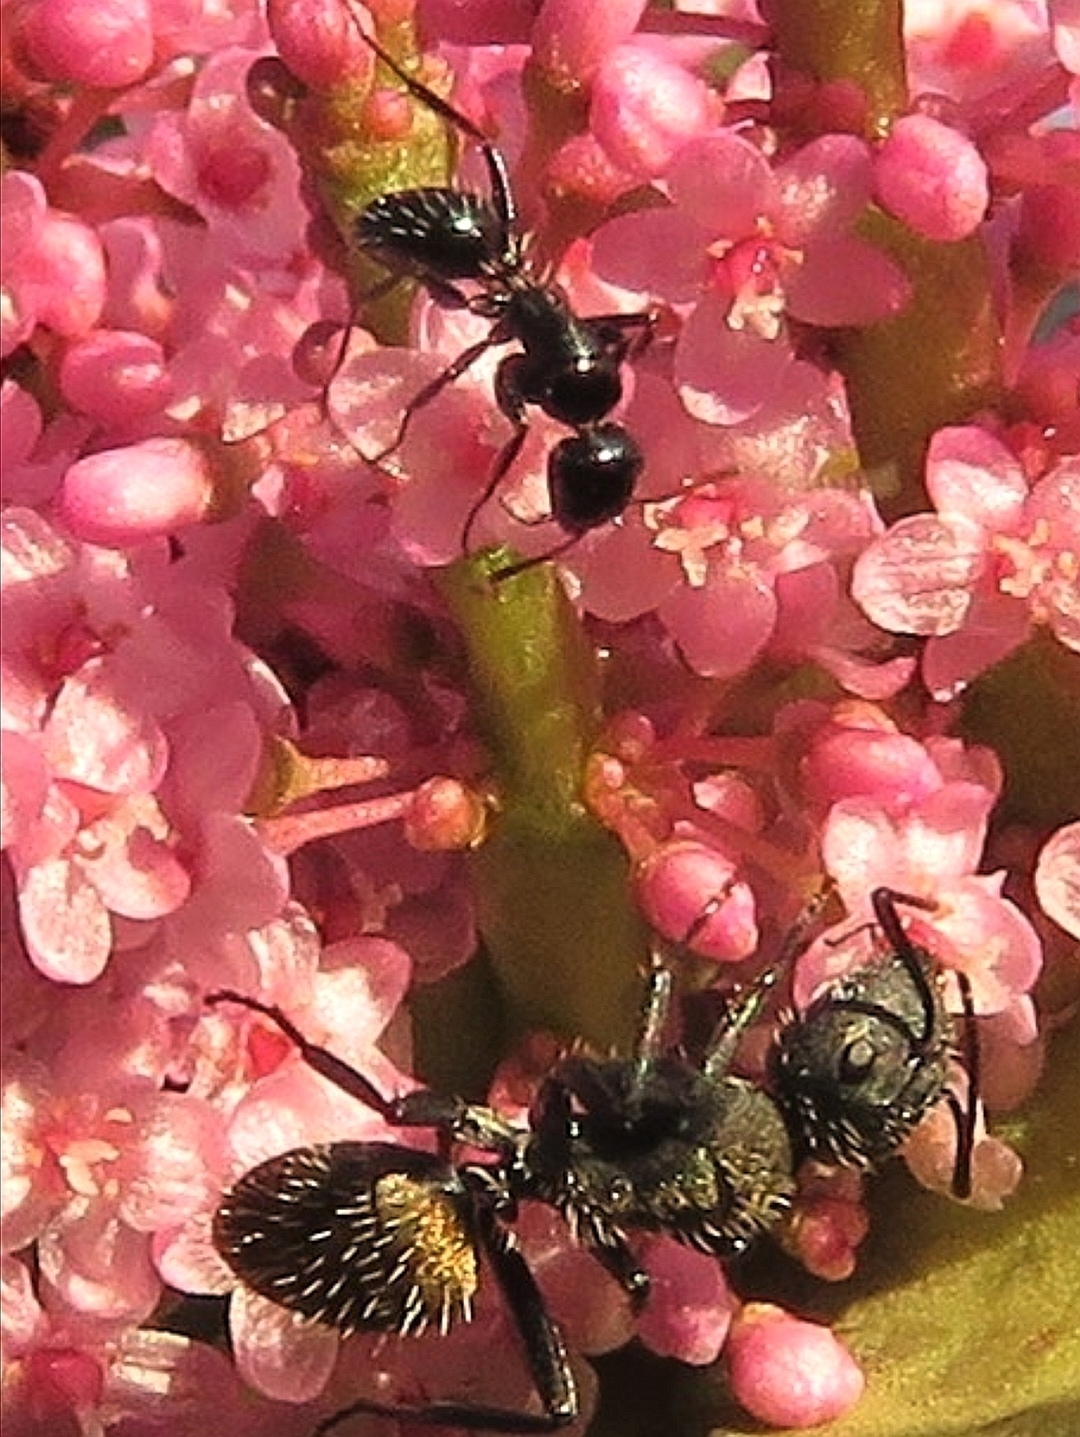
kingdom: Animalia
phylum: Arthropoda
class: Insecta
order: Hymenoptera
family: Formicidae
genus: Camponotus
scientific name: Camponotus niveosetosus
